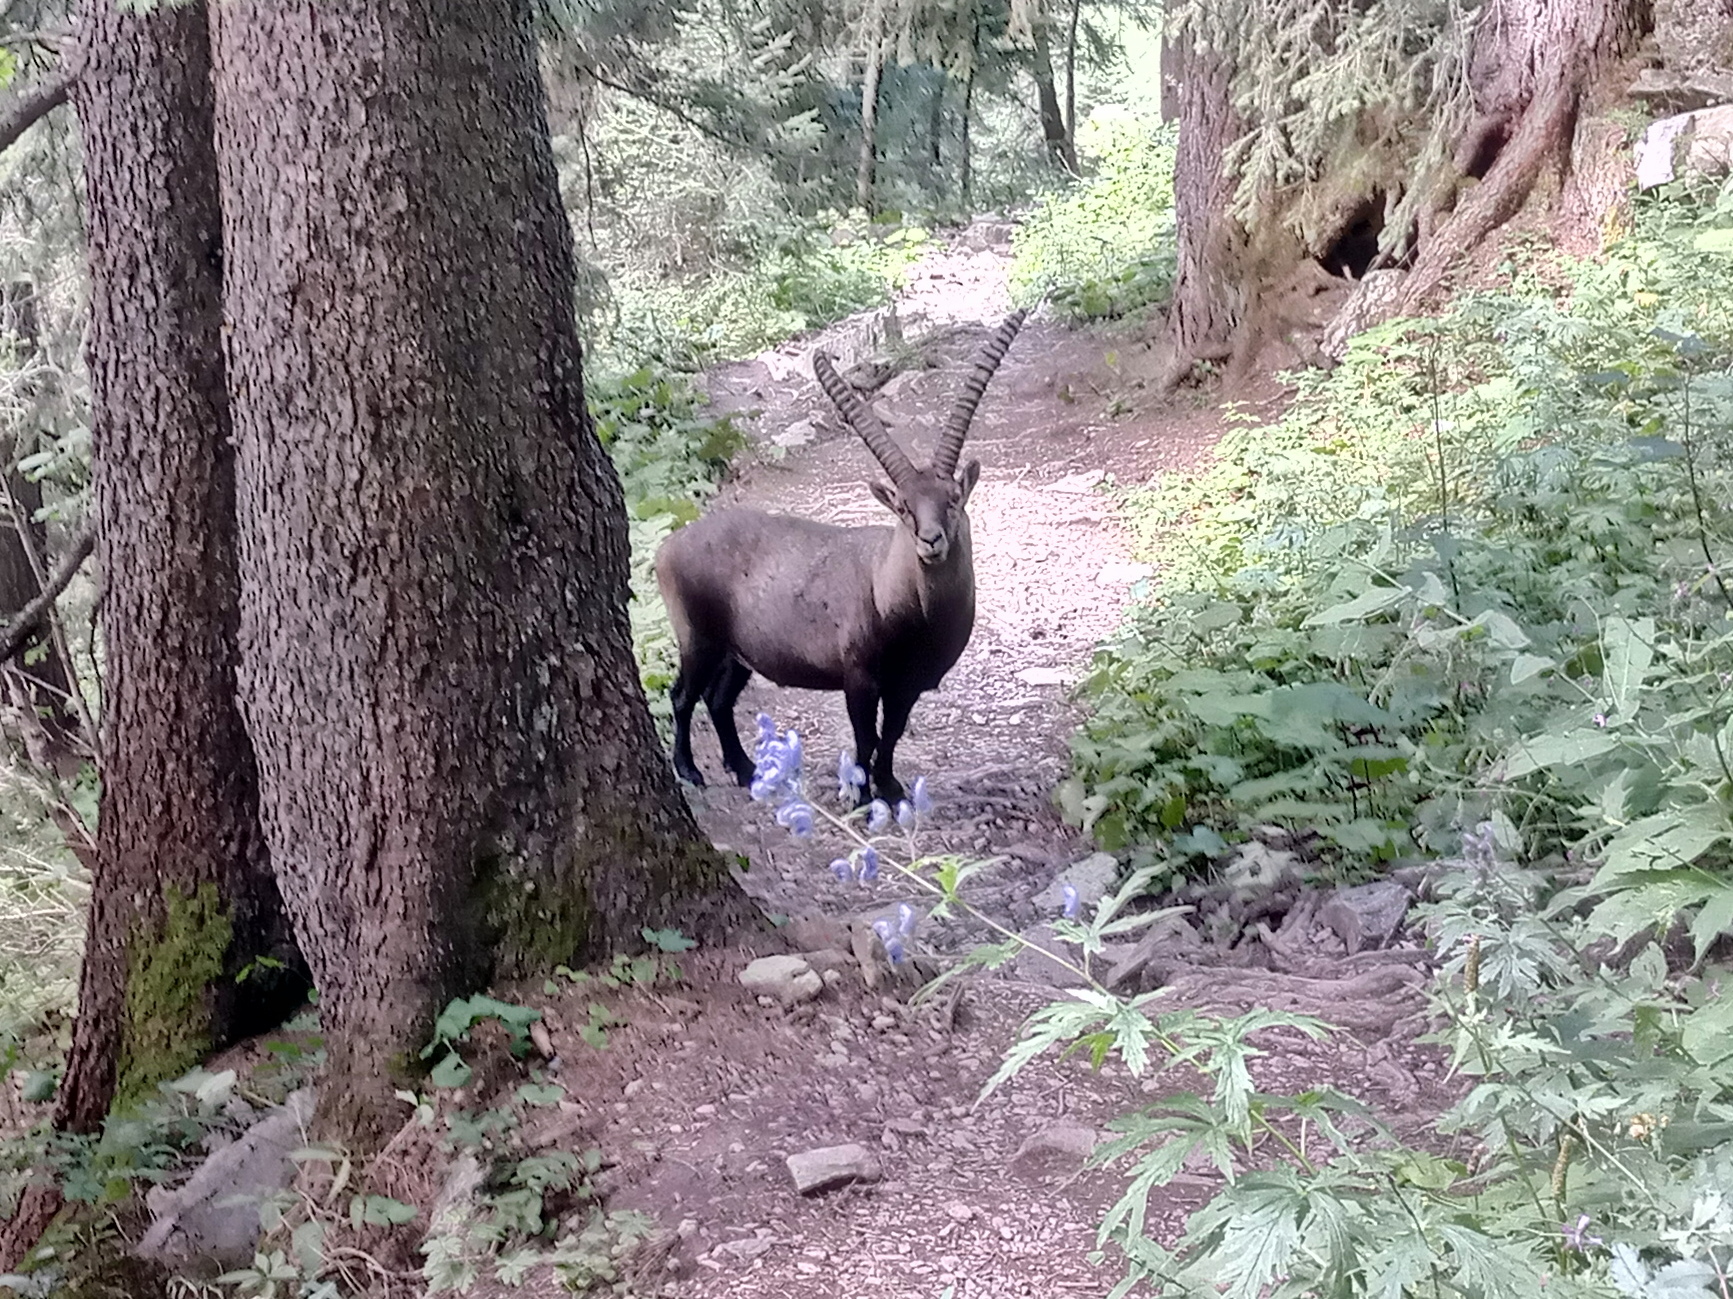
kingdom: Animalia
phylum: Chordata
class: Mammalia
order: Artiodactyla
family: Bovidae
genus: Capra
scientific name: Capra ibex
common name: Alpine ibex
